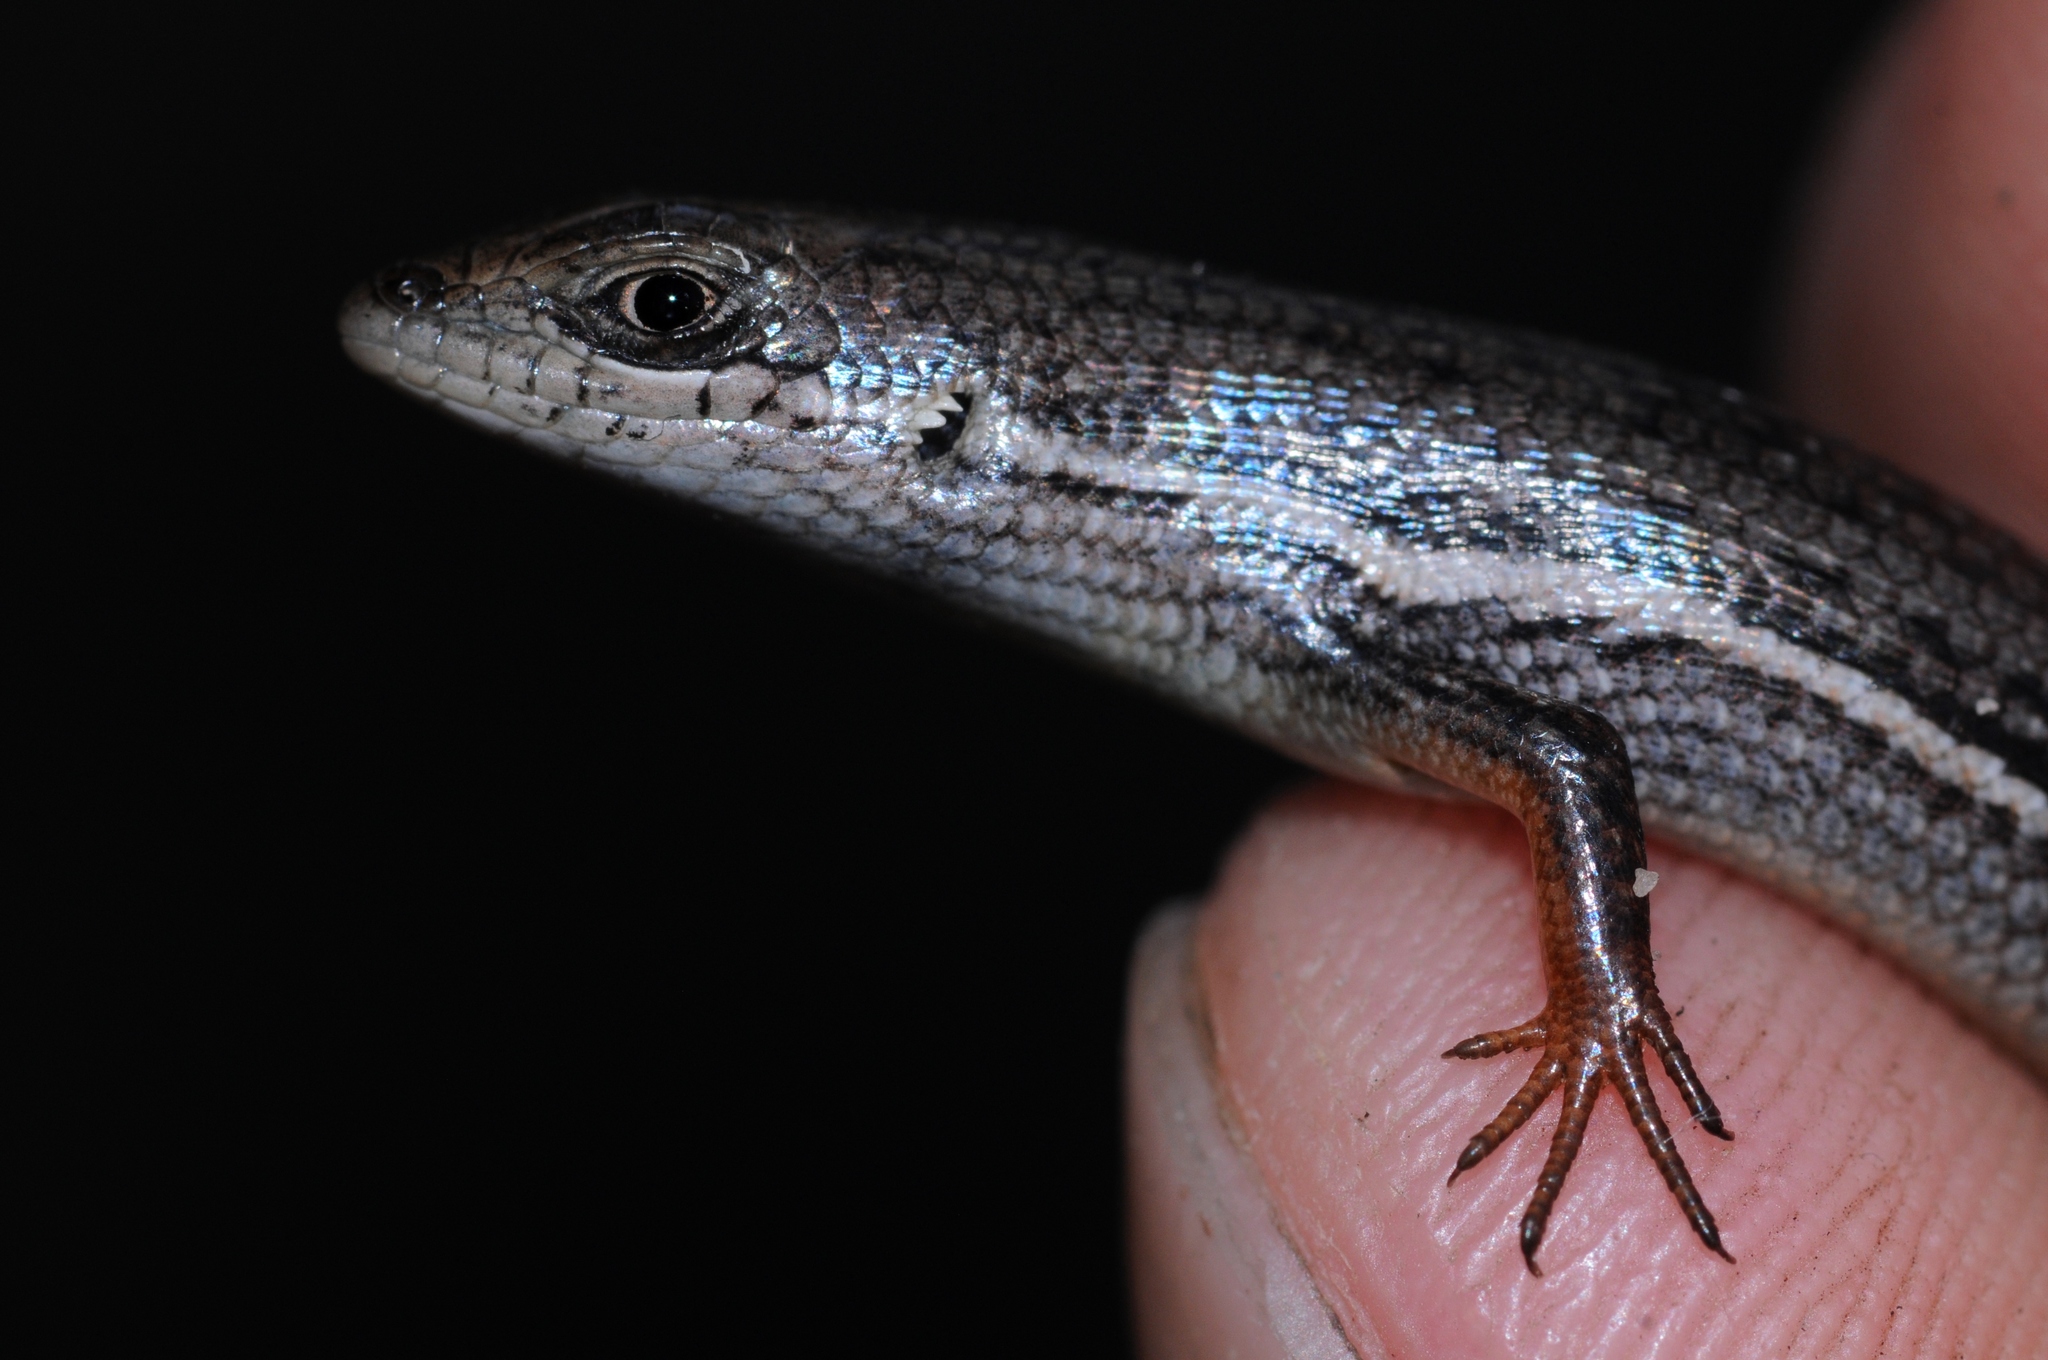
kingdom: Animalia
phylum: Chordata
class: Squamata
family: Scincidae
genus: Trachylepis
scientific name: Trachylepis homalocephala
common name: Red-sided skink
